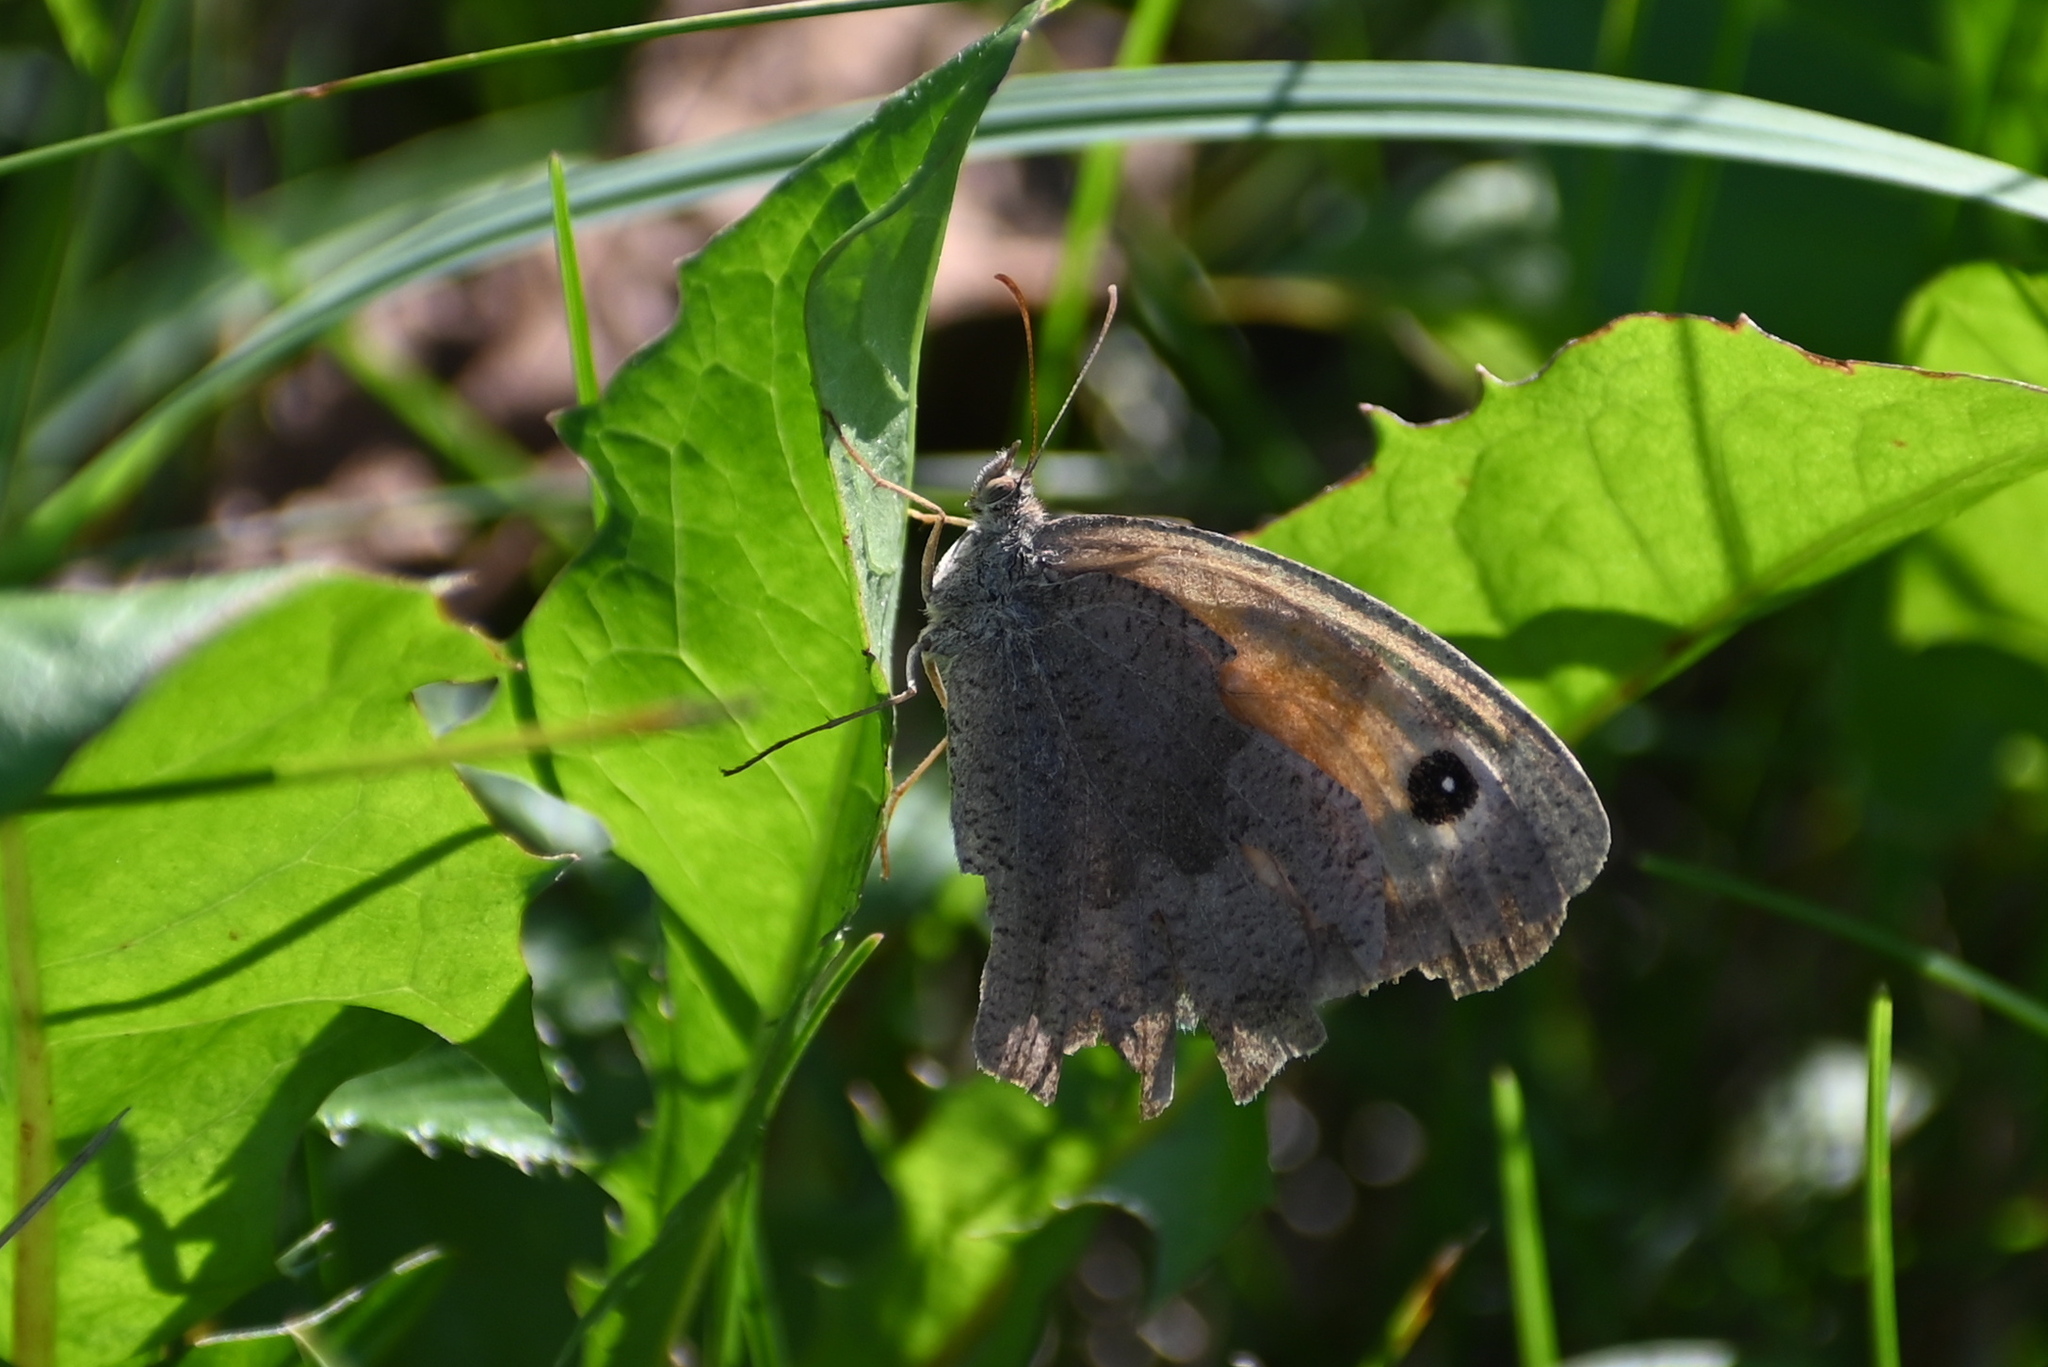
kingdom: Animalia
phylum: Arthropoda
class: Insecta
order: Lepidoptera
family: Nymphalidae
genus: Maniola
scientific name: Maniola jurtina
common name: Meadow brown
